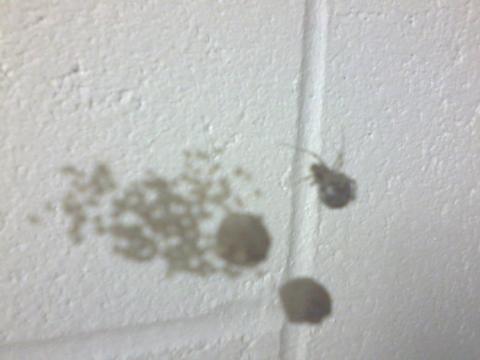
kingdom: Animalia
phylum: Arthropoda
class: Arachnida
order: Araneae
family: Theridiidae
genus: Parasteatoda
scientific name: Parasteatoda tepidariorum
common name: Common house spider
